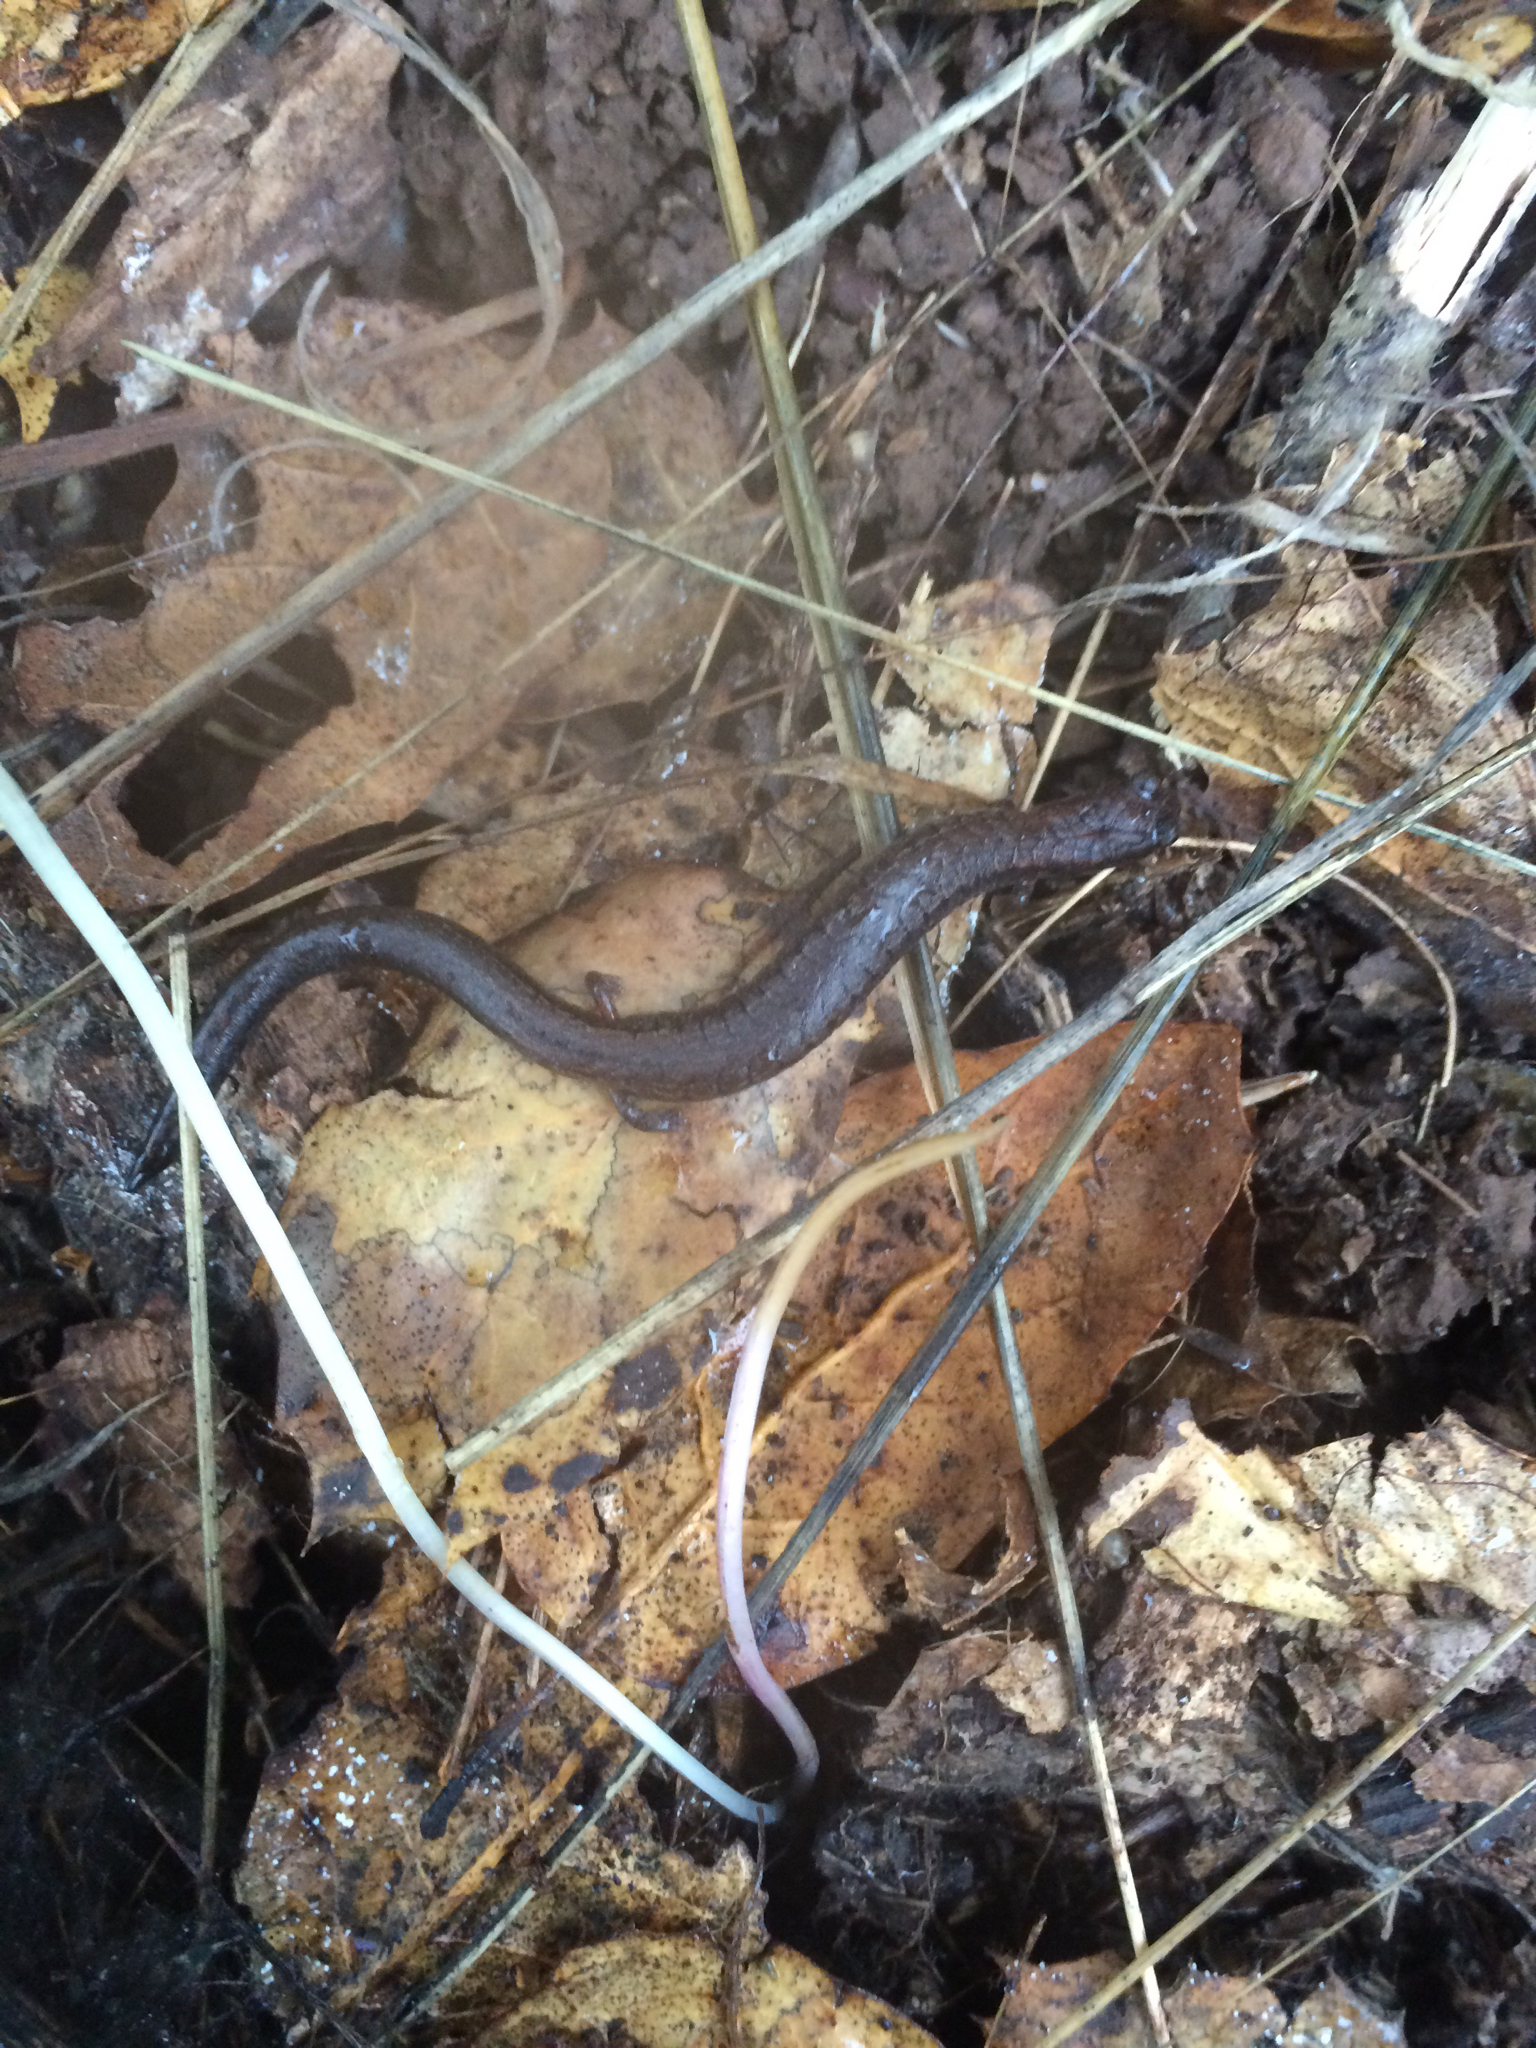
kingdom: Animalia
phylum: Chordata
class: Amphibia
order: Caudata
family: Plethodontidae
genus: Batrachoseps
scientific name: Batrachoseps attenuatus
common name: California slender salamander
